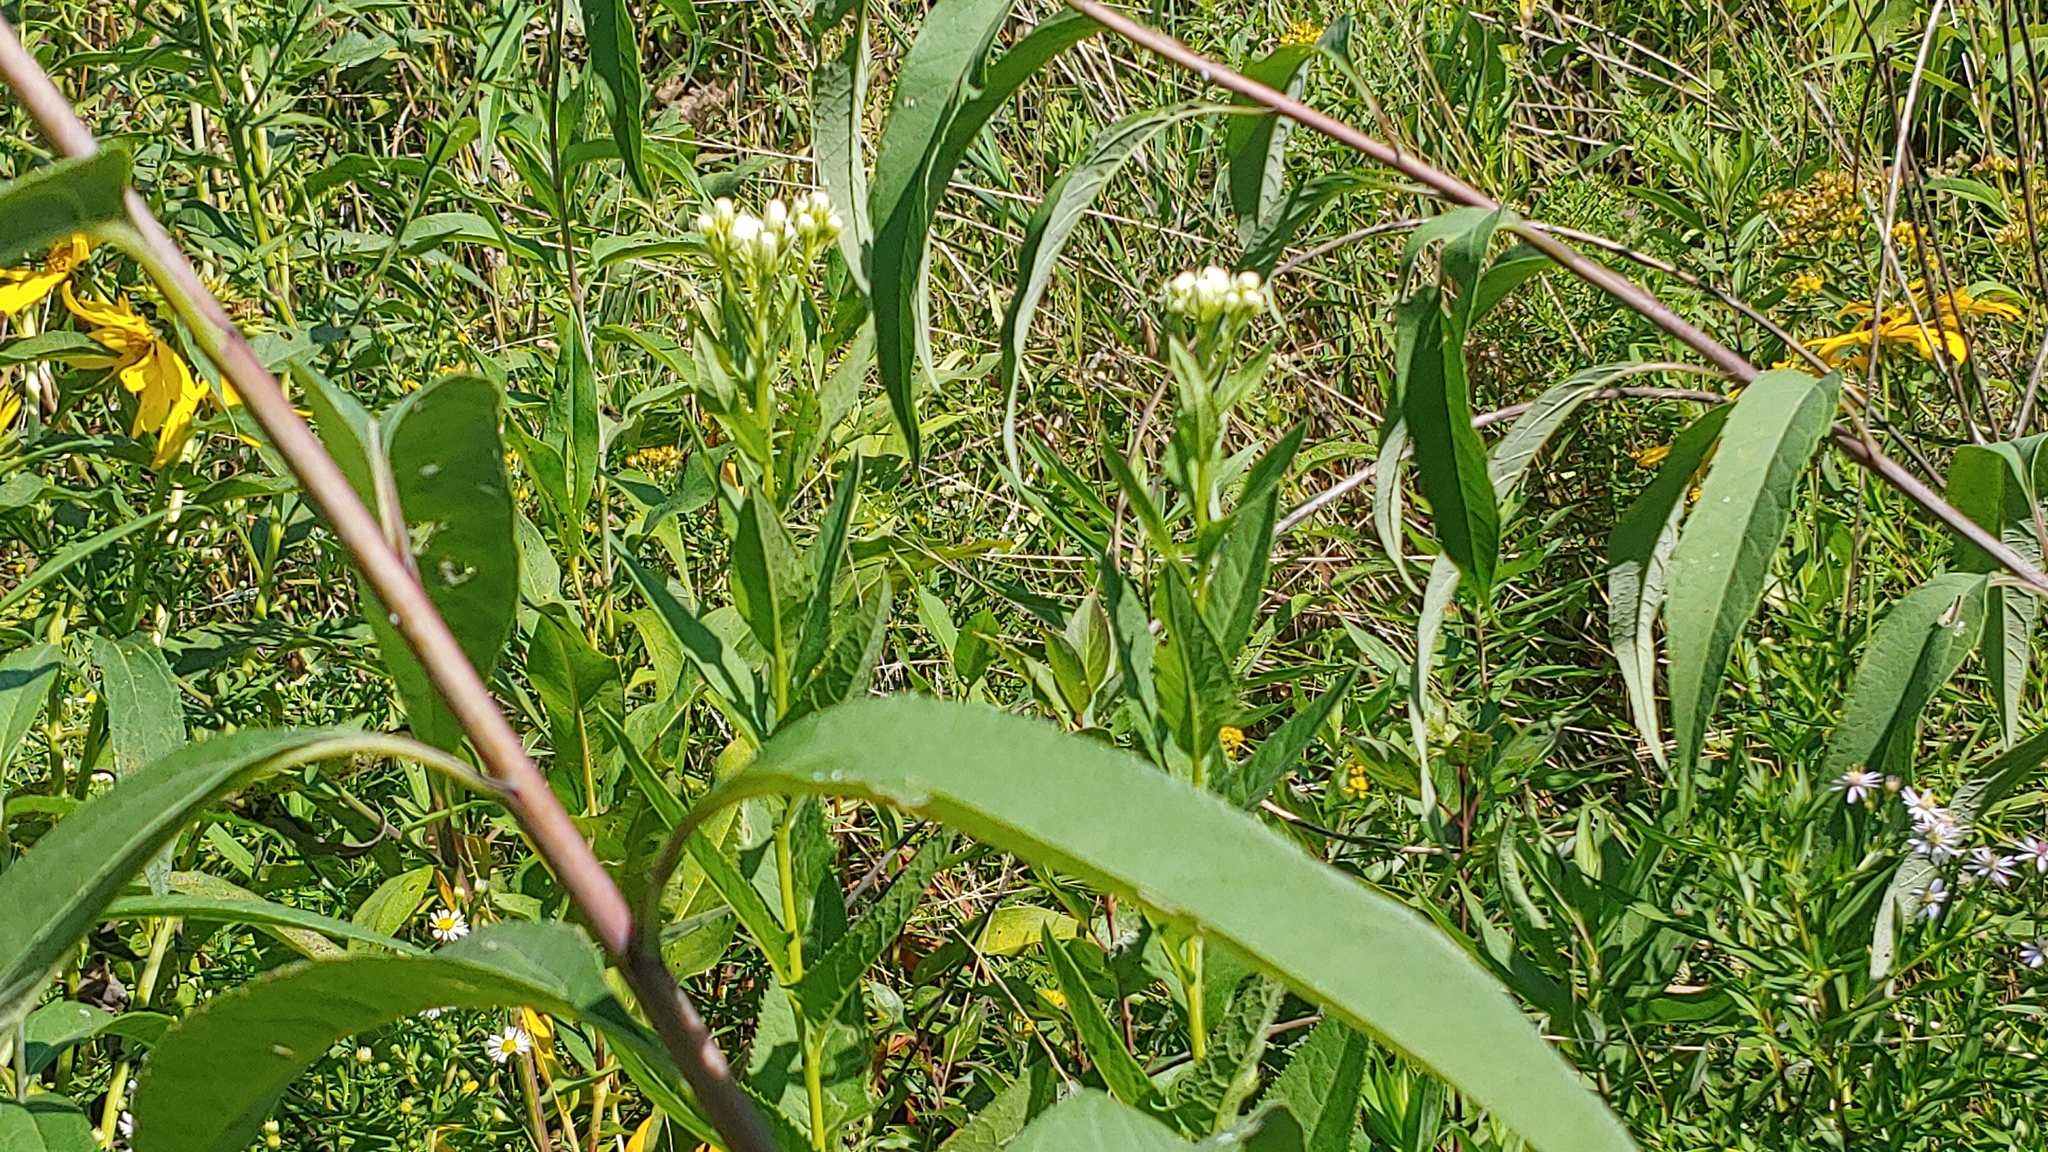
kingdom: Plantae
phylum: Tracheophyta
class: Magnoliopsida
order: Asterales
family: Asteraceae
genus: Hasteola
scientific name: Hasteola suaveolens
